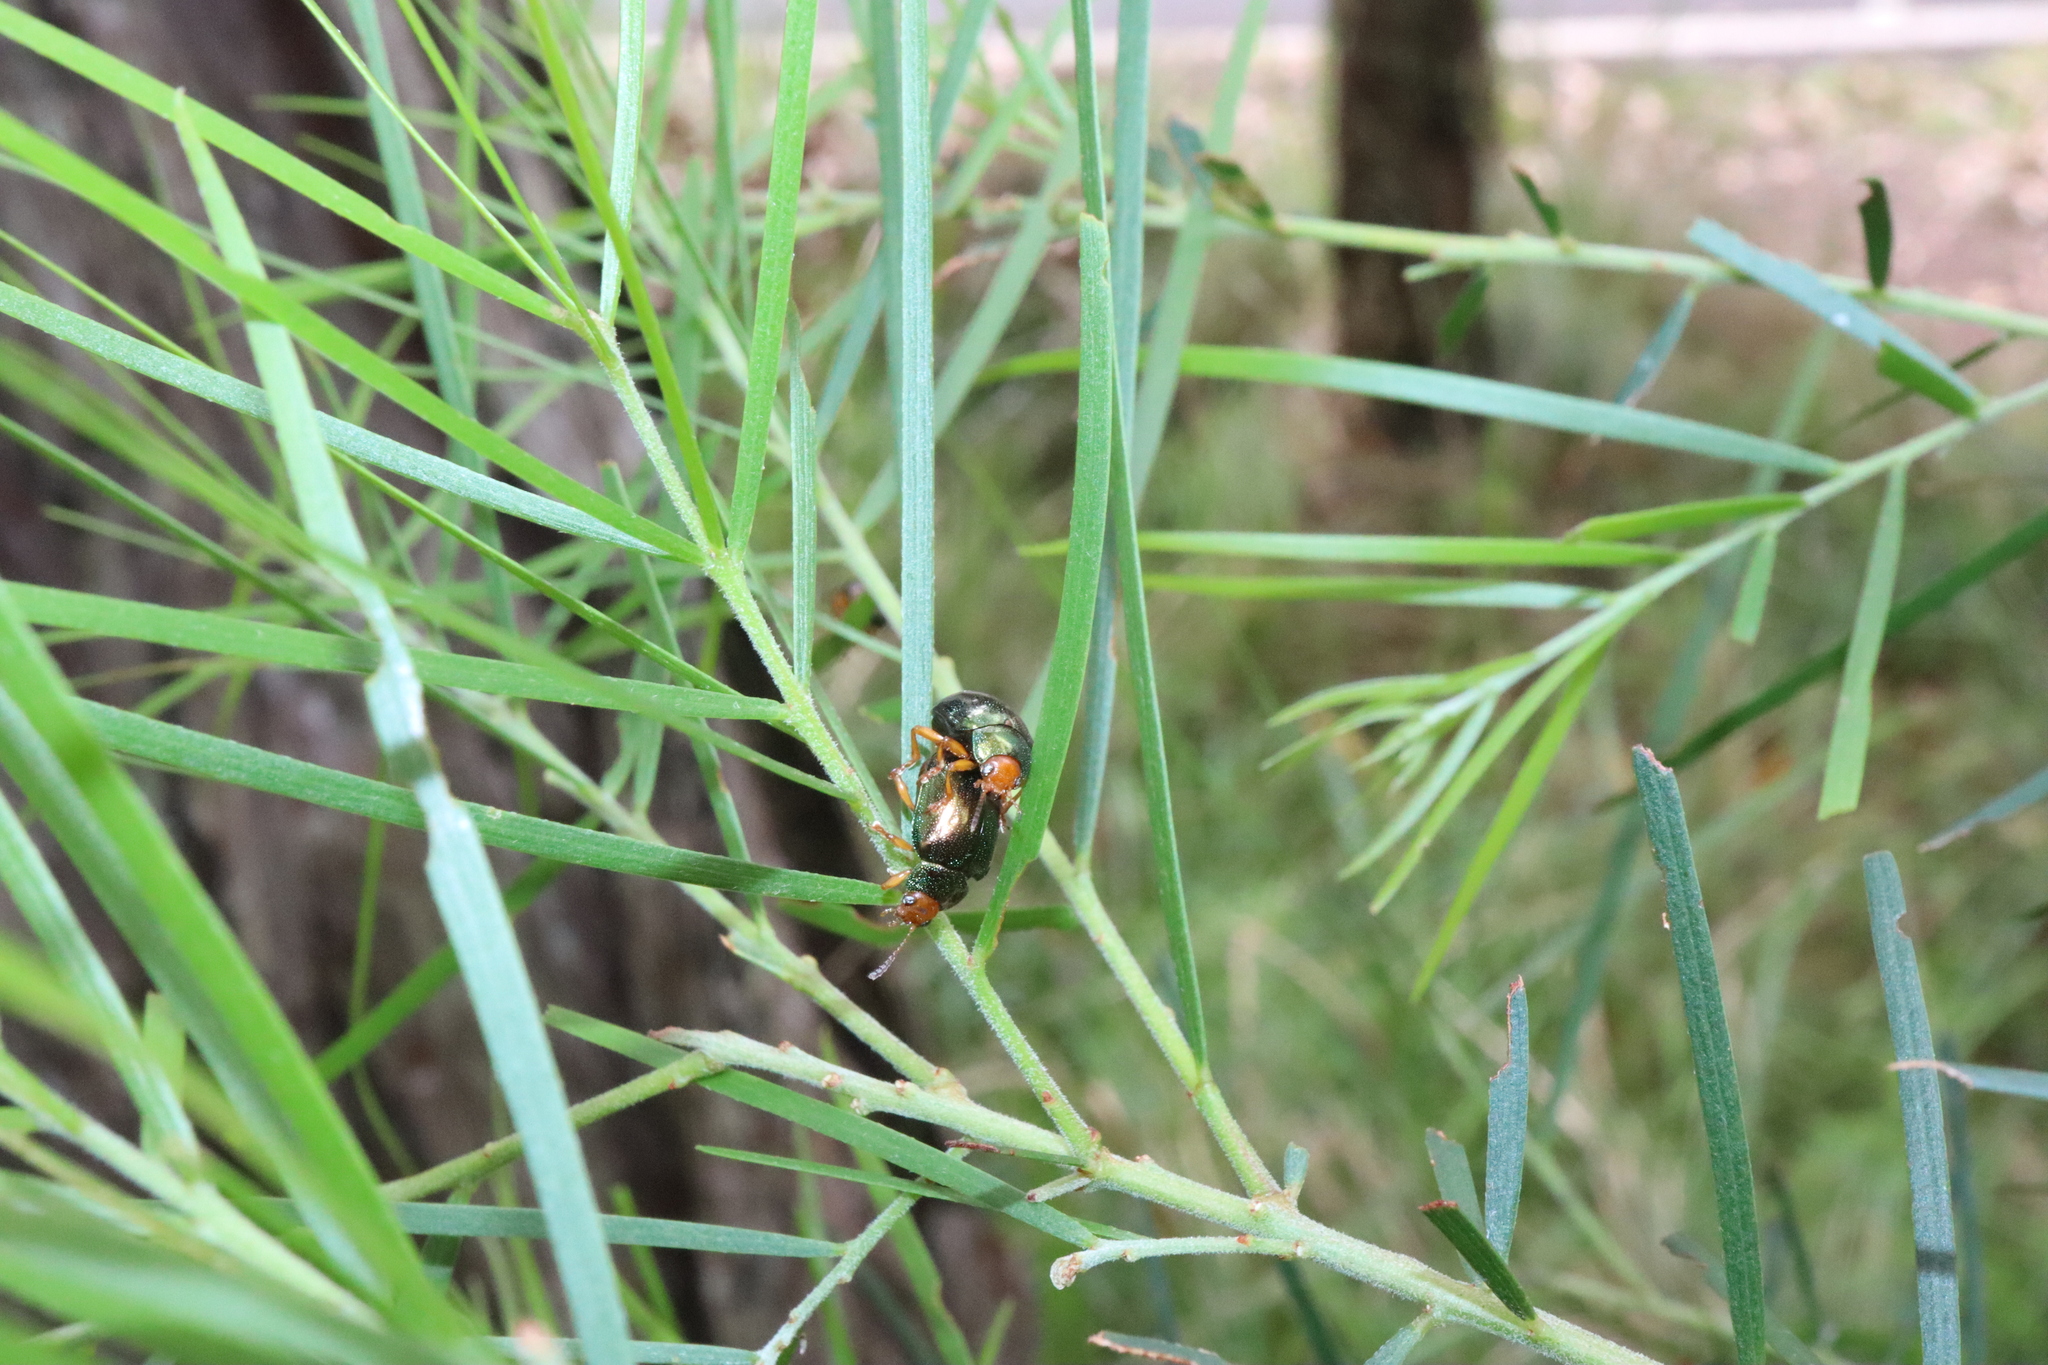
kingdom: Animalia
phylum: Arthropoda
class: Insecta
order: Coleoptera
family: Chrysomelidae
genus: Calomela
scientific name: Calomela
